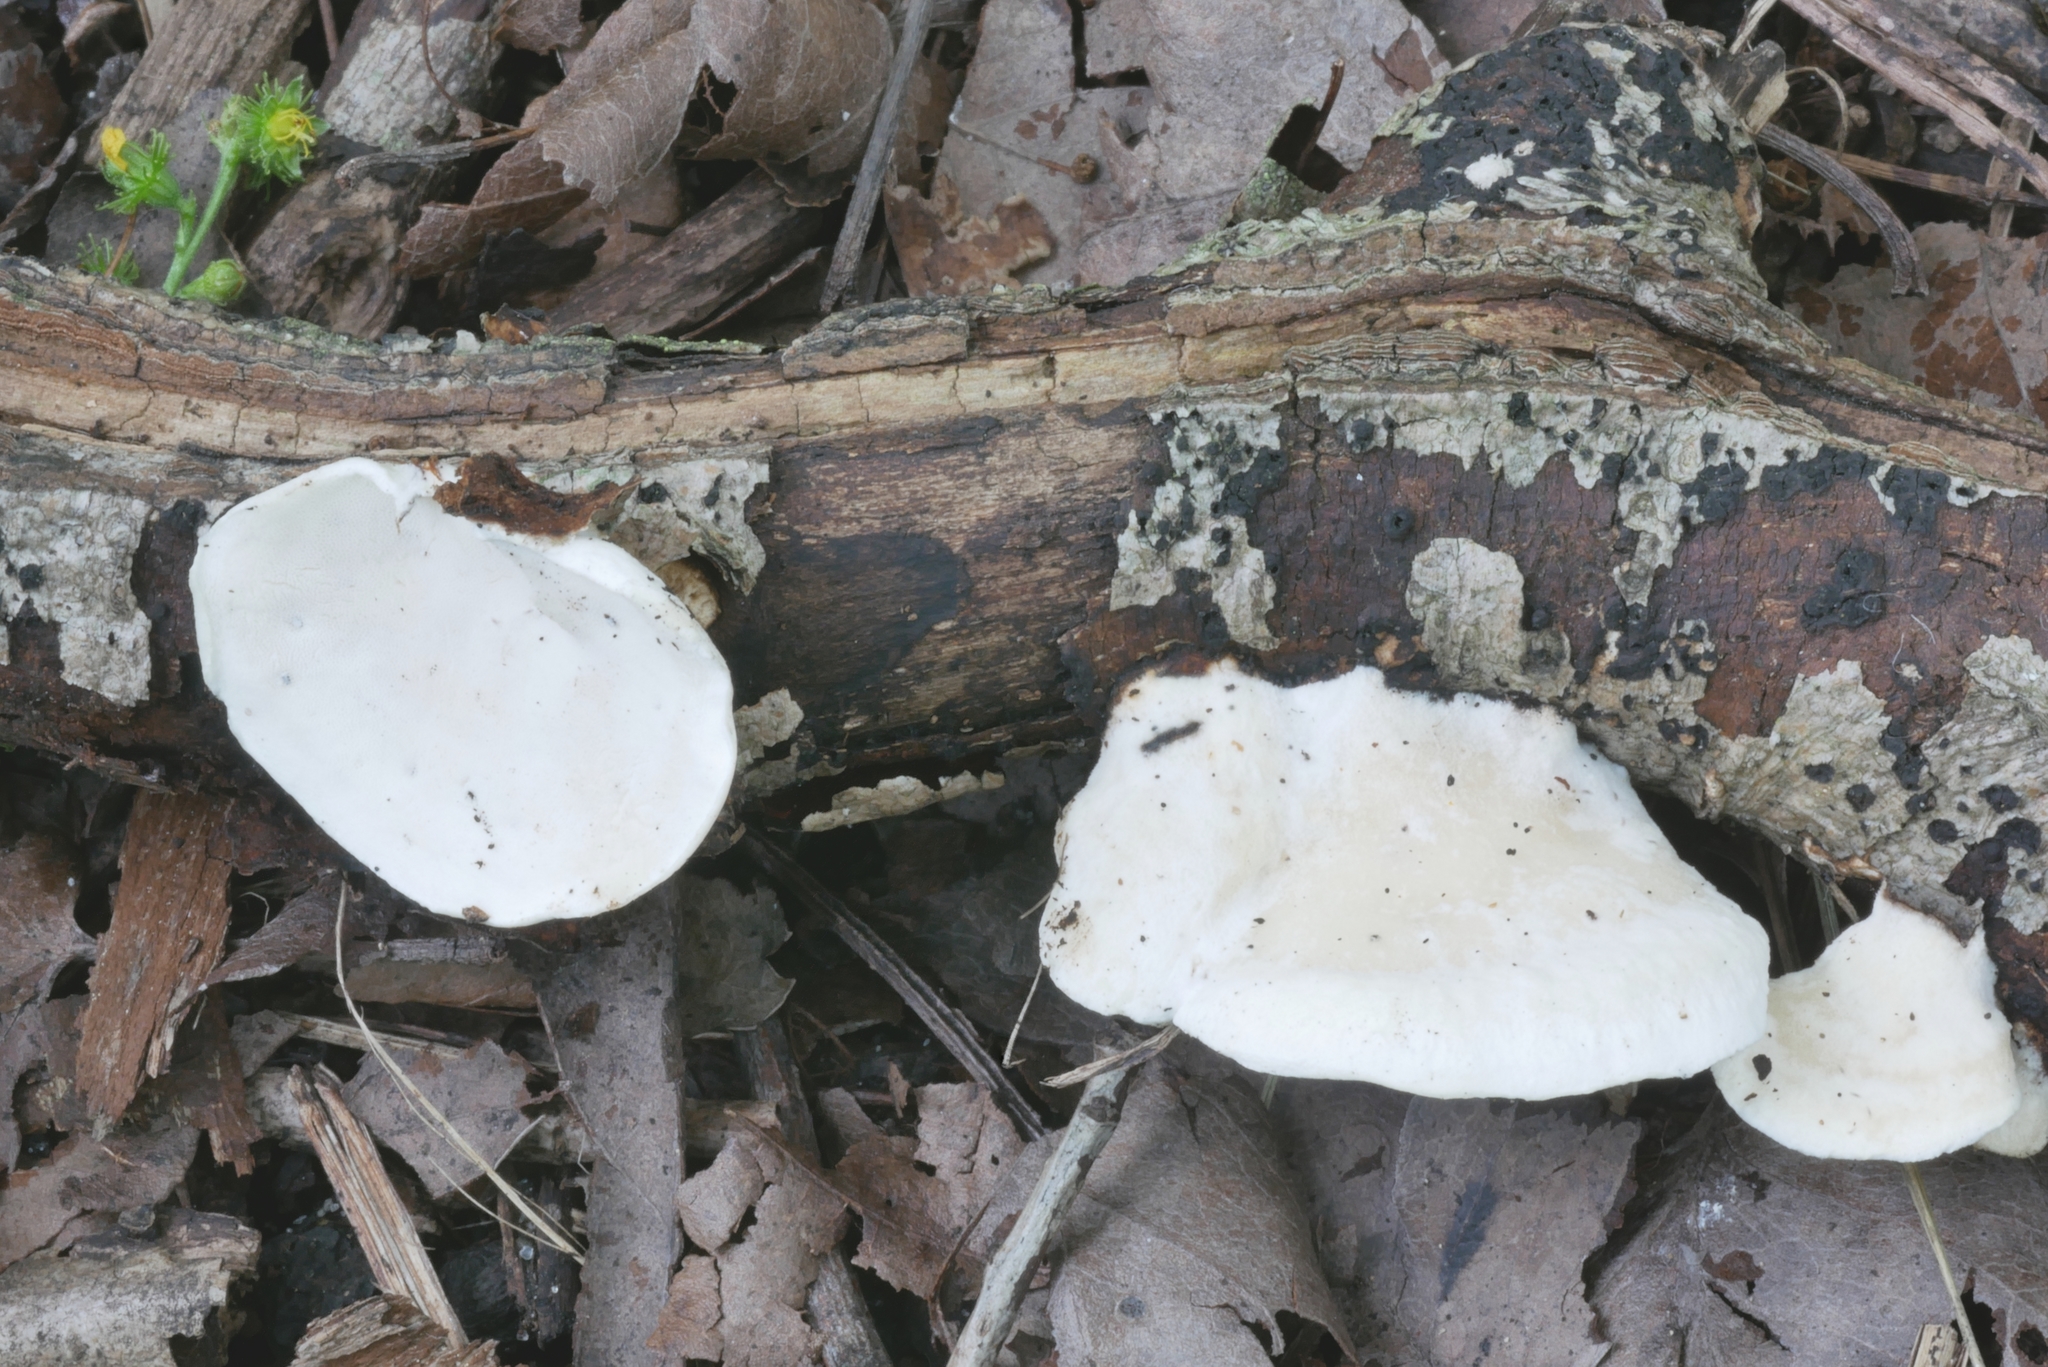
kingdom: Fungi
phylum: Basidiomycota
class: Agaricomycetes
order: Polyporales
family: Incrustoporiaceae
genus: Skeletocutis
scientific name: Skeletocutis semipileata
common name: Hazel bracket
